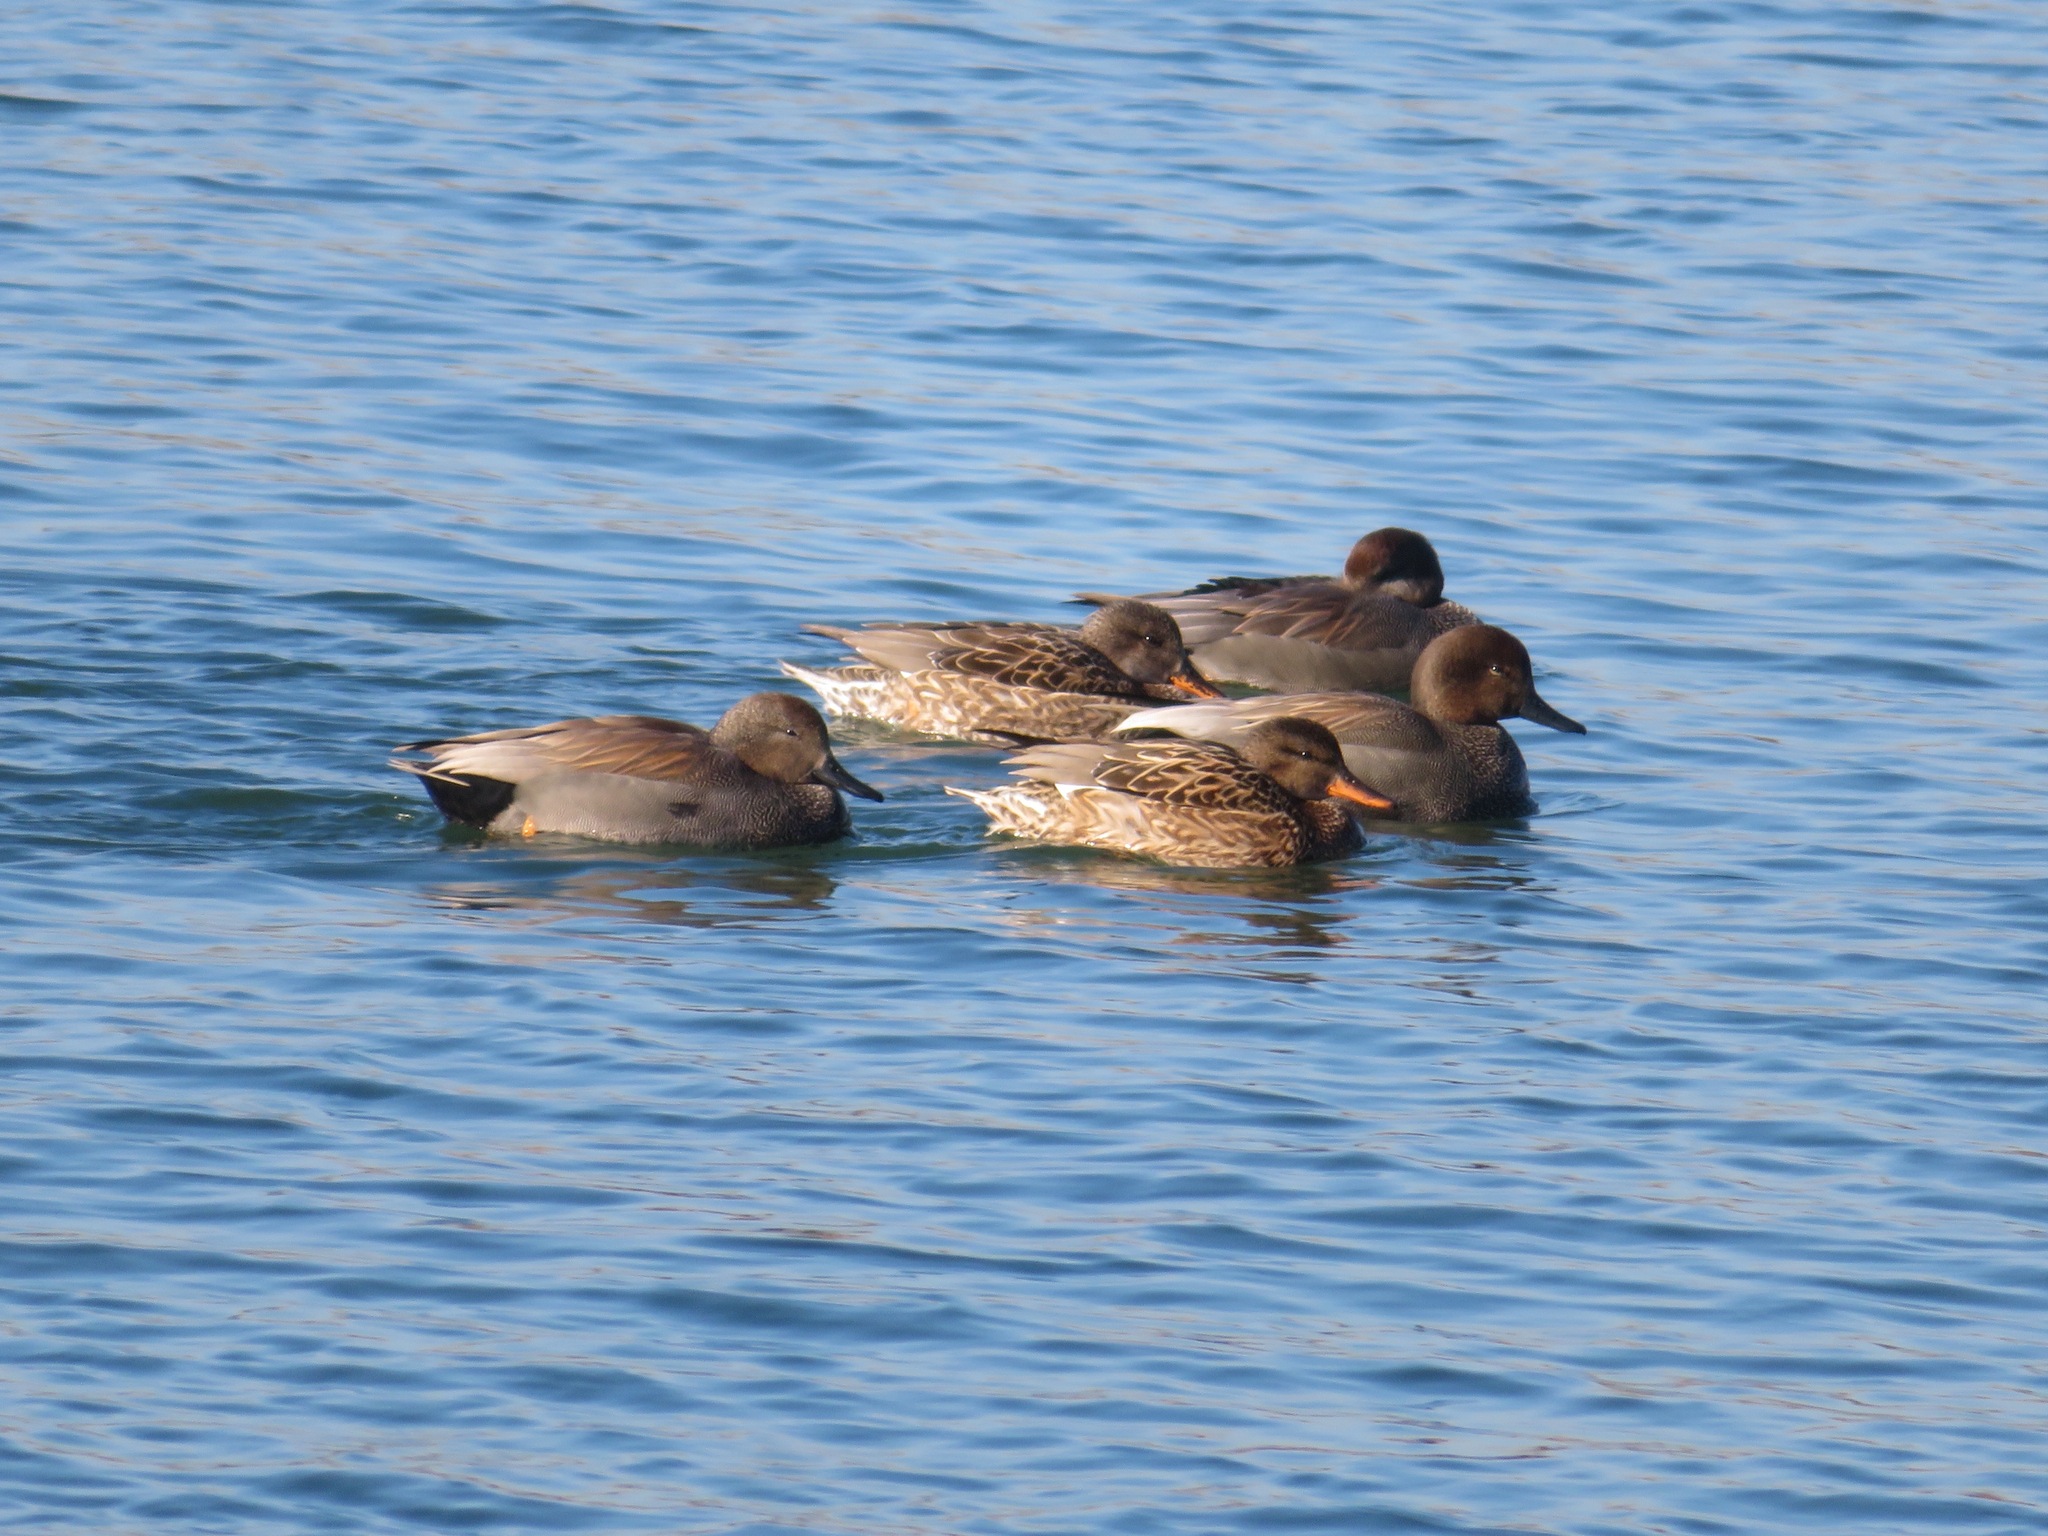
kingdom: Animalia
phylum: Chordata
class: Aves
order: Anseriformes
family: Anatidae
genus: Mareca
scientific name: Mareca strepera
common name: Gadwall
